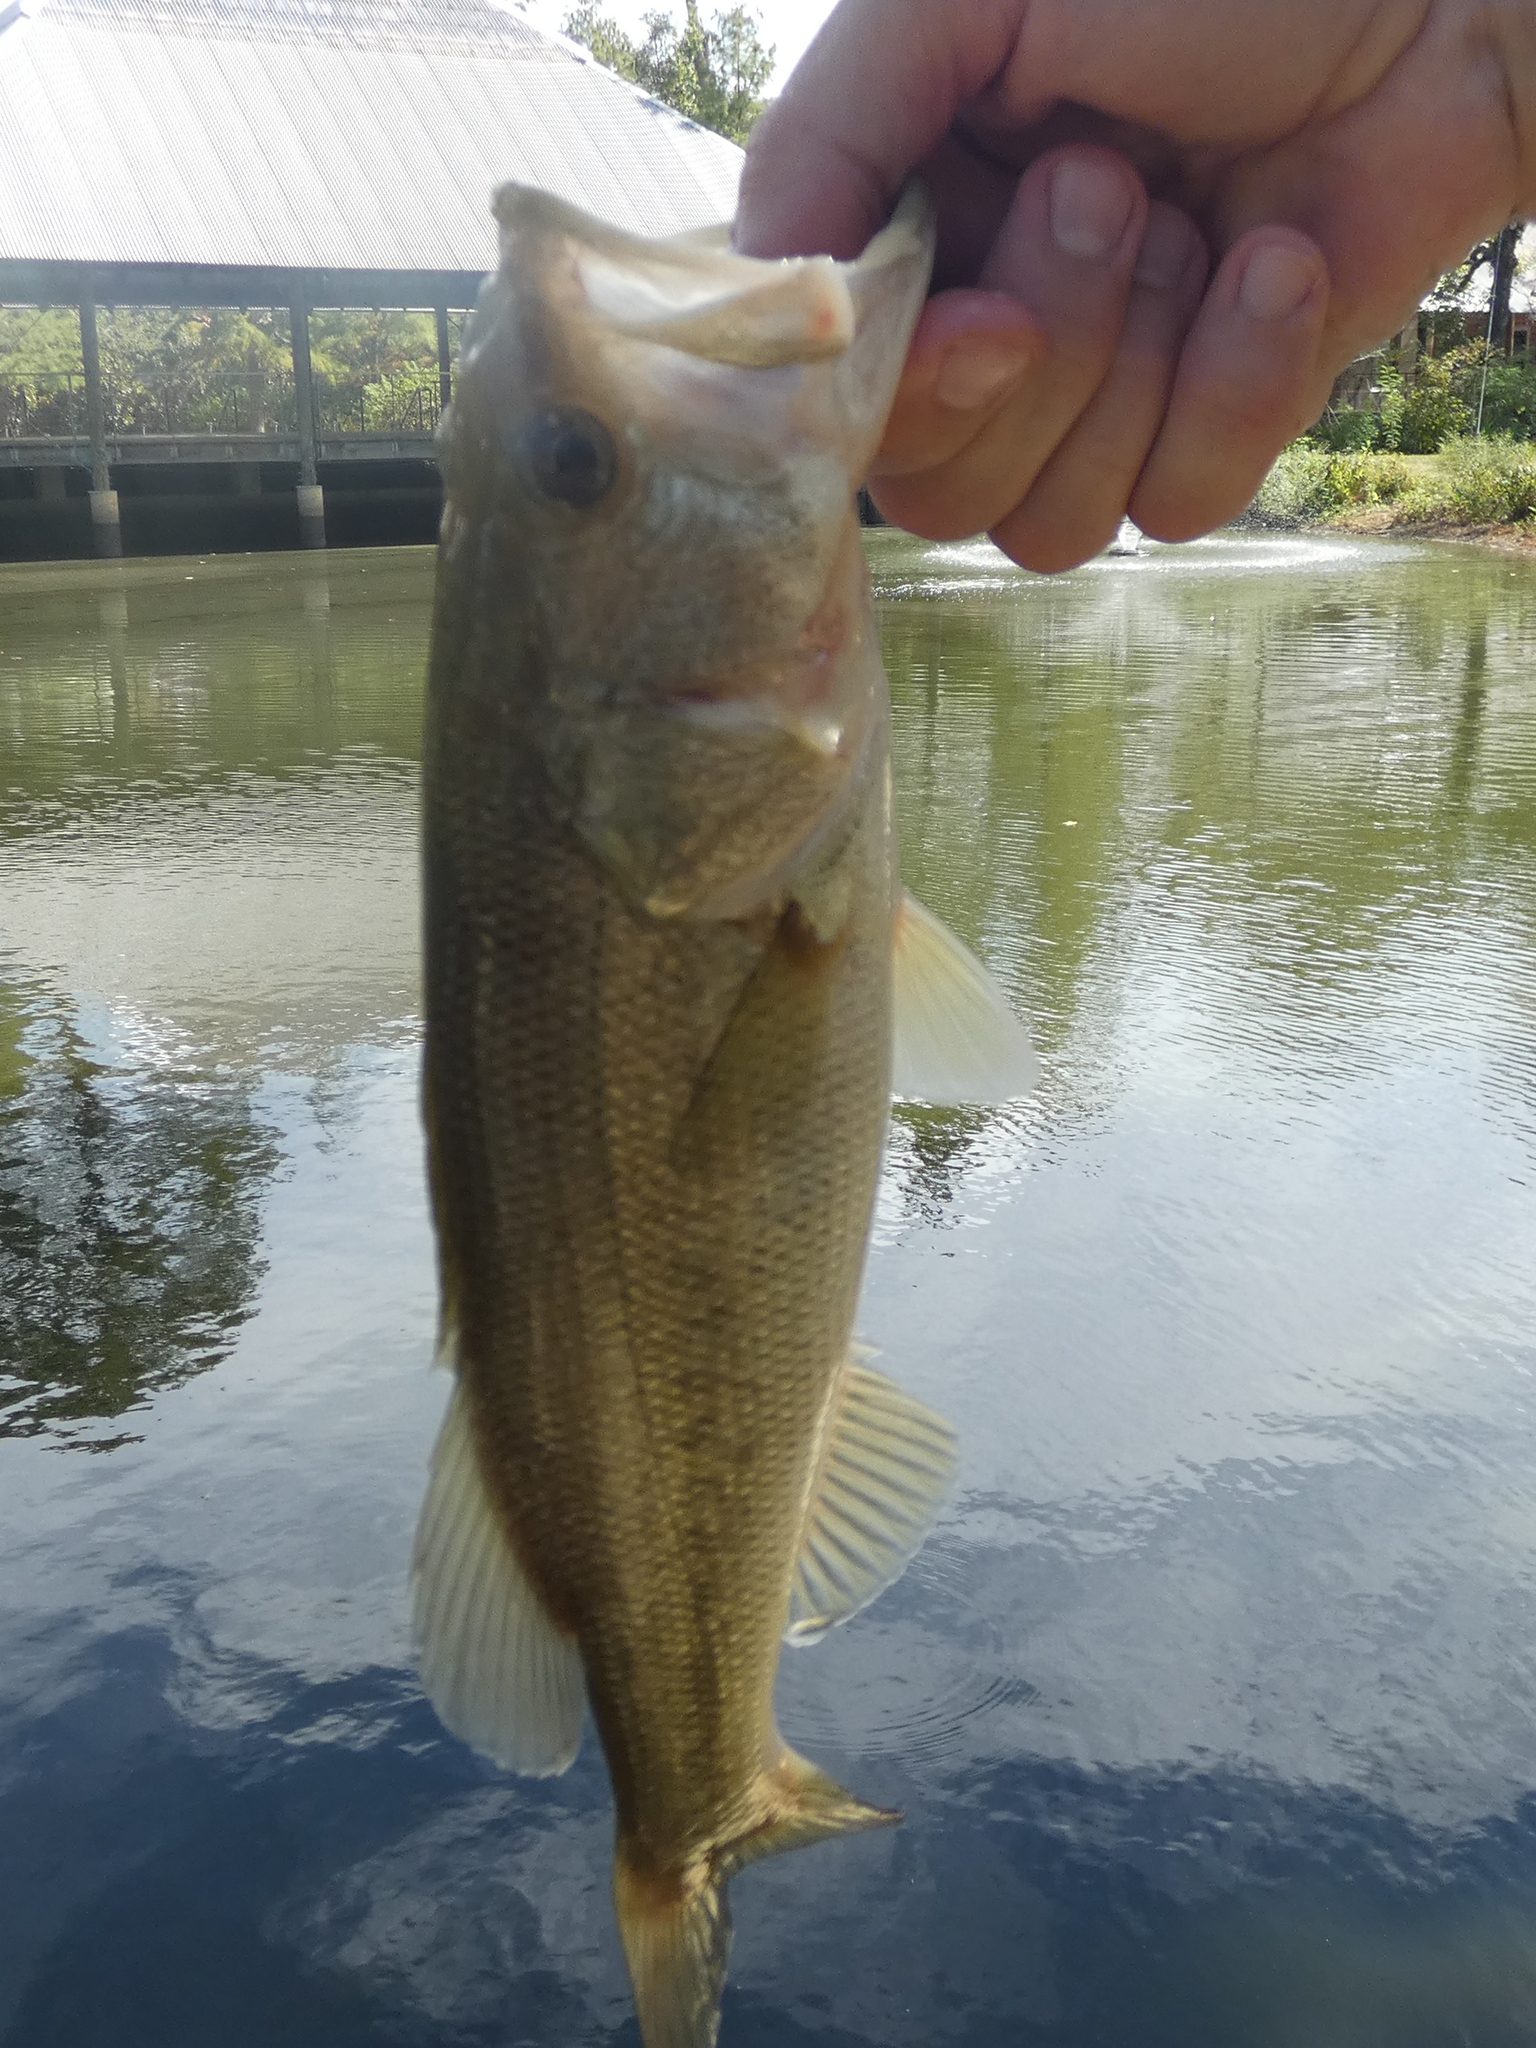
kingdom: Animalia
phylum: Chordata
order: Perciformes
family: Centrarchidae
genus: Micropterus
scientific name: Micropterus
